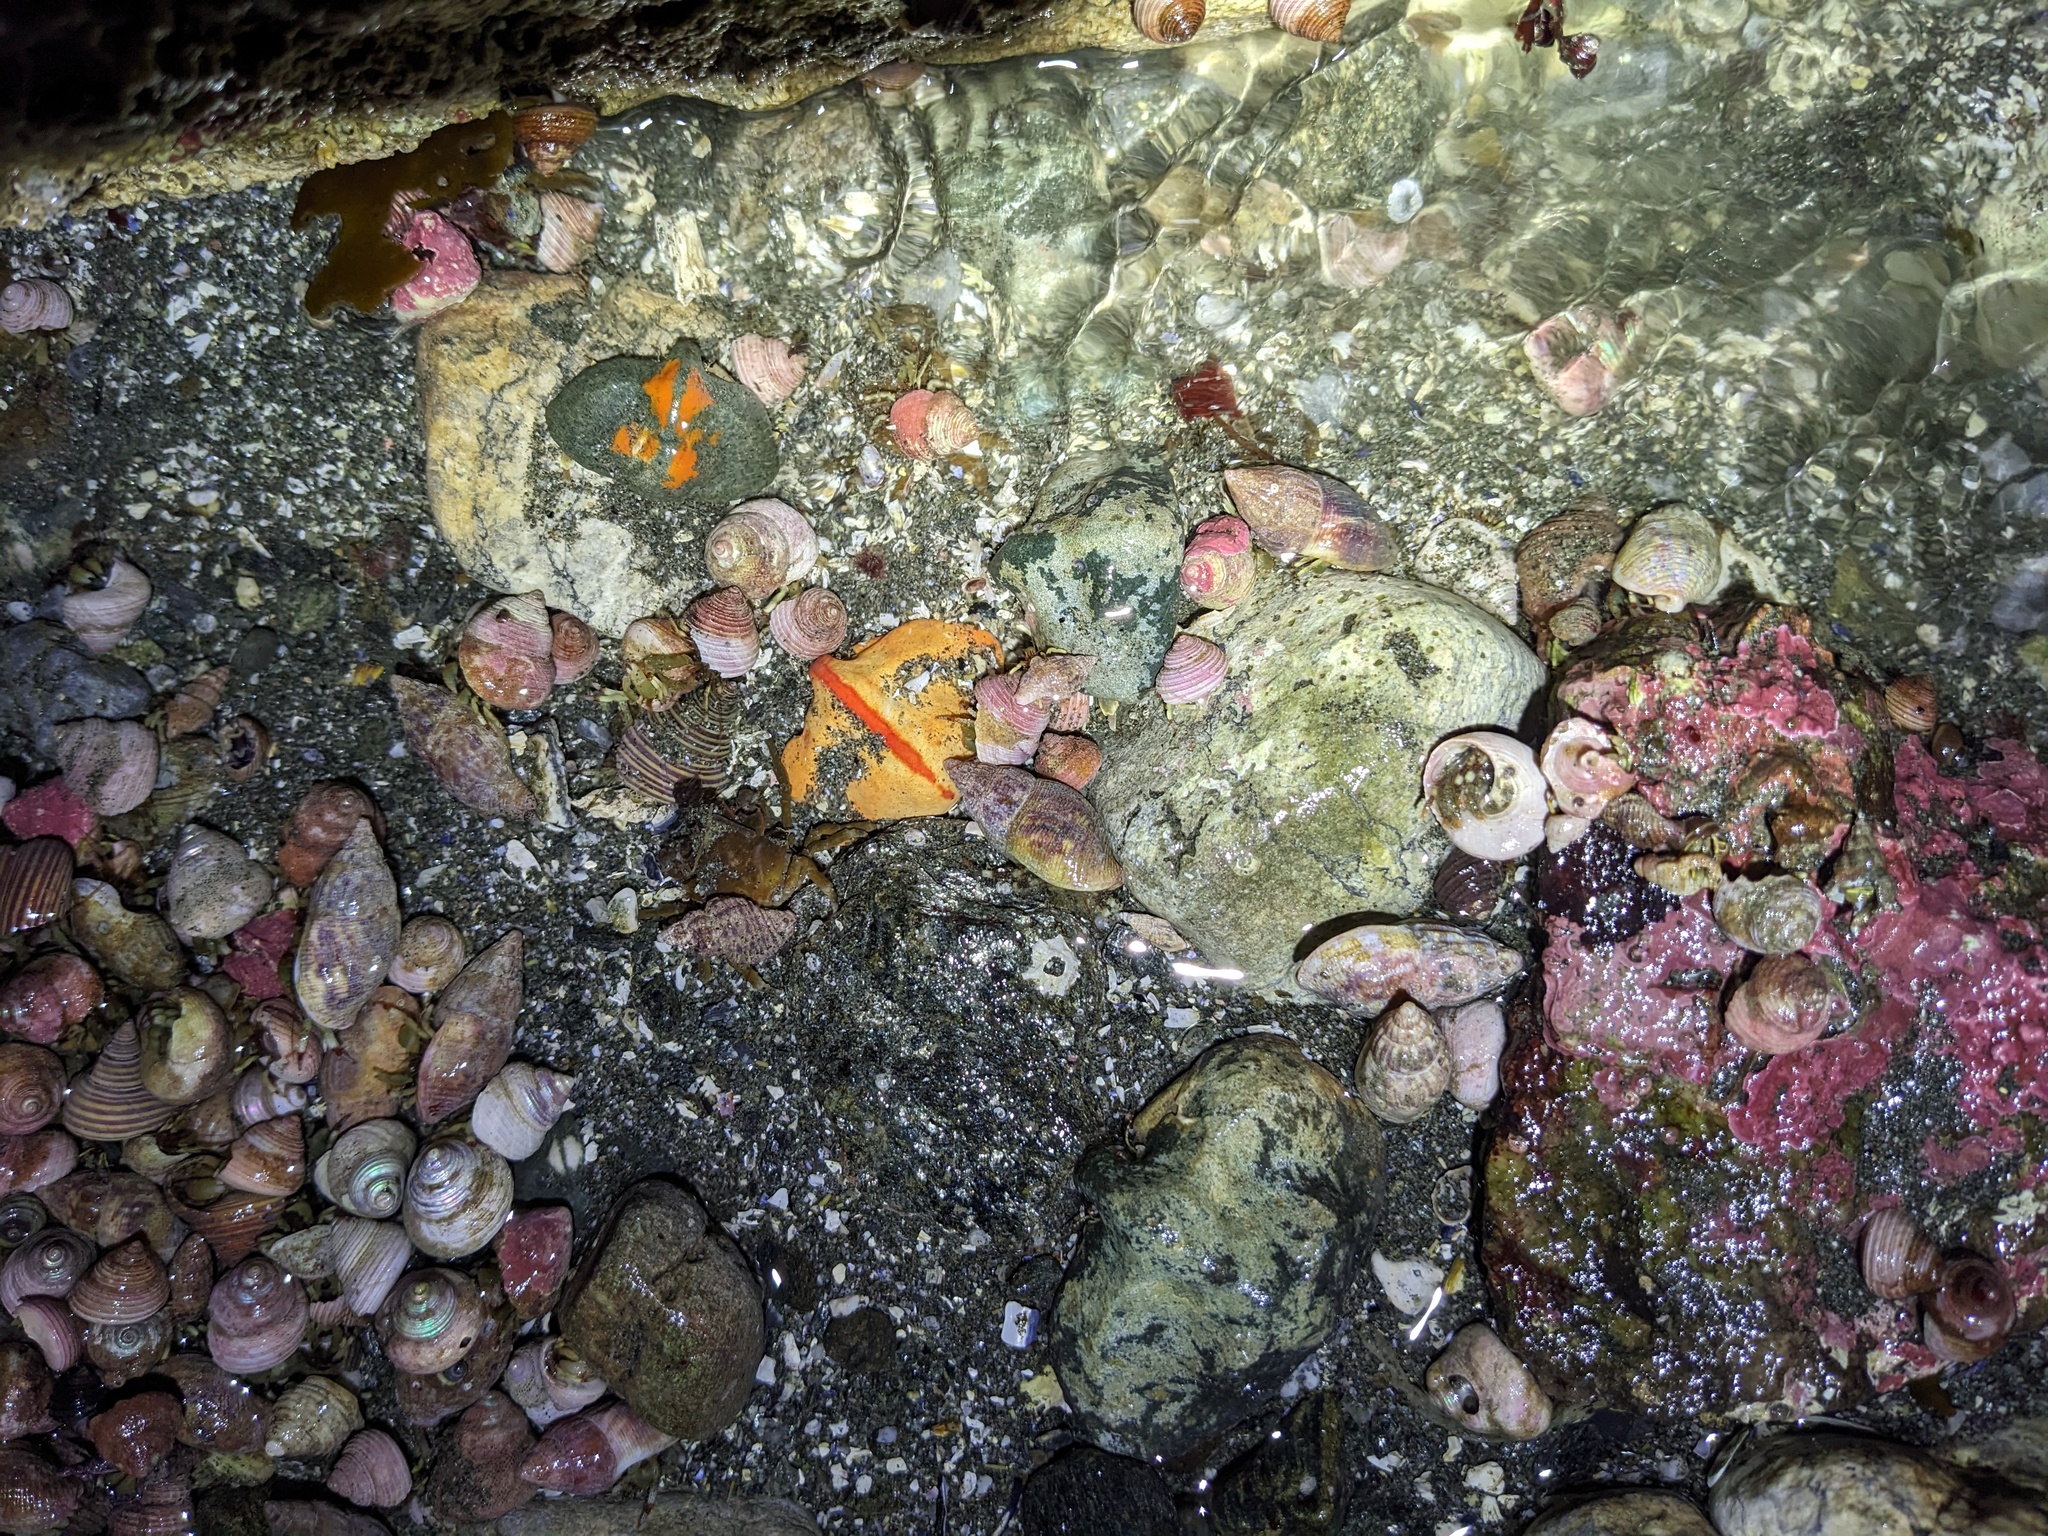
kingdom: Animalia
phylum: Arthropoda
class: Malacostraca
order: Decapoda
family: Lithodidae
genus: Cryptolithodes
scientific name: Cryptolithodes typicus
